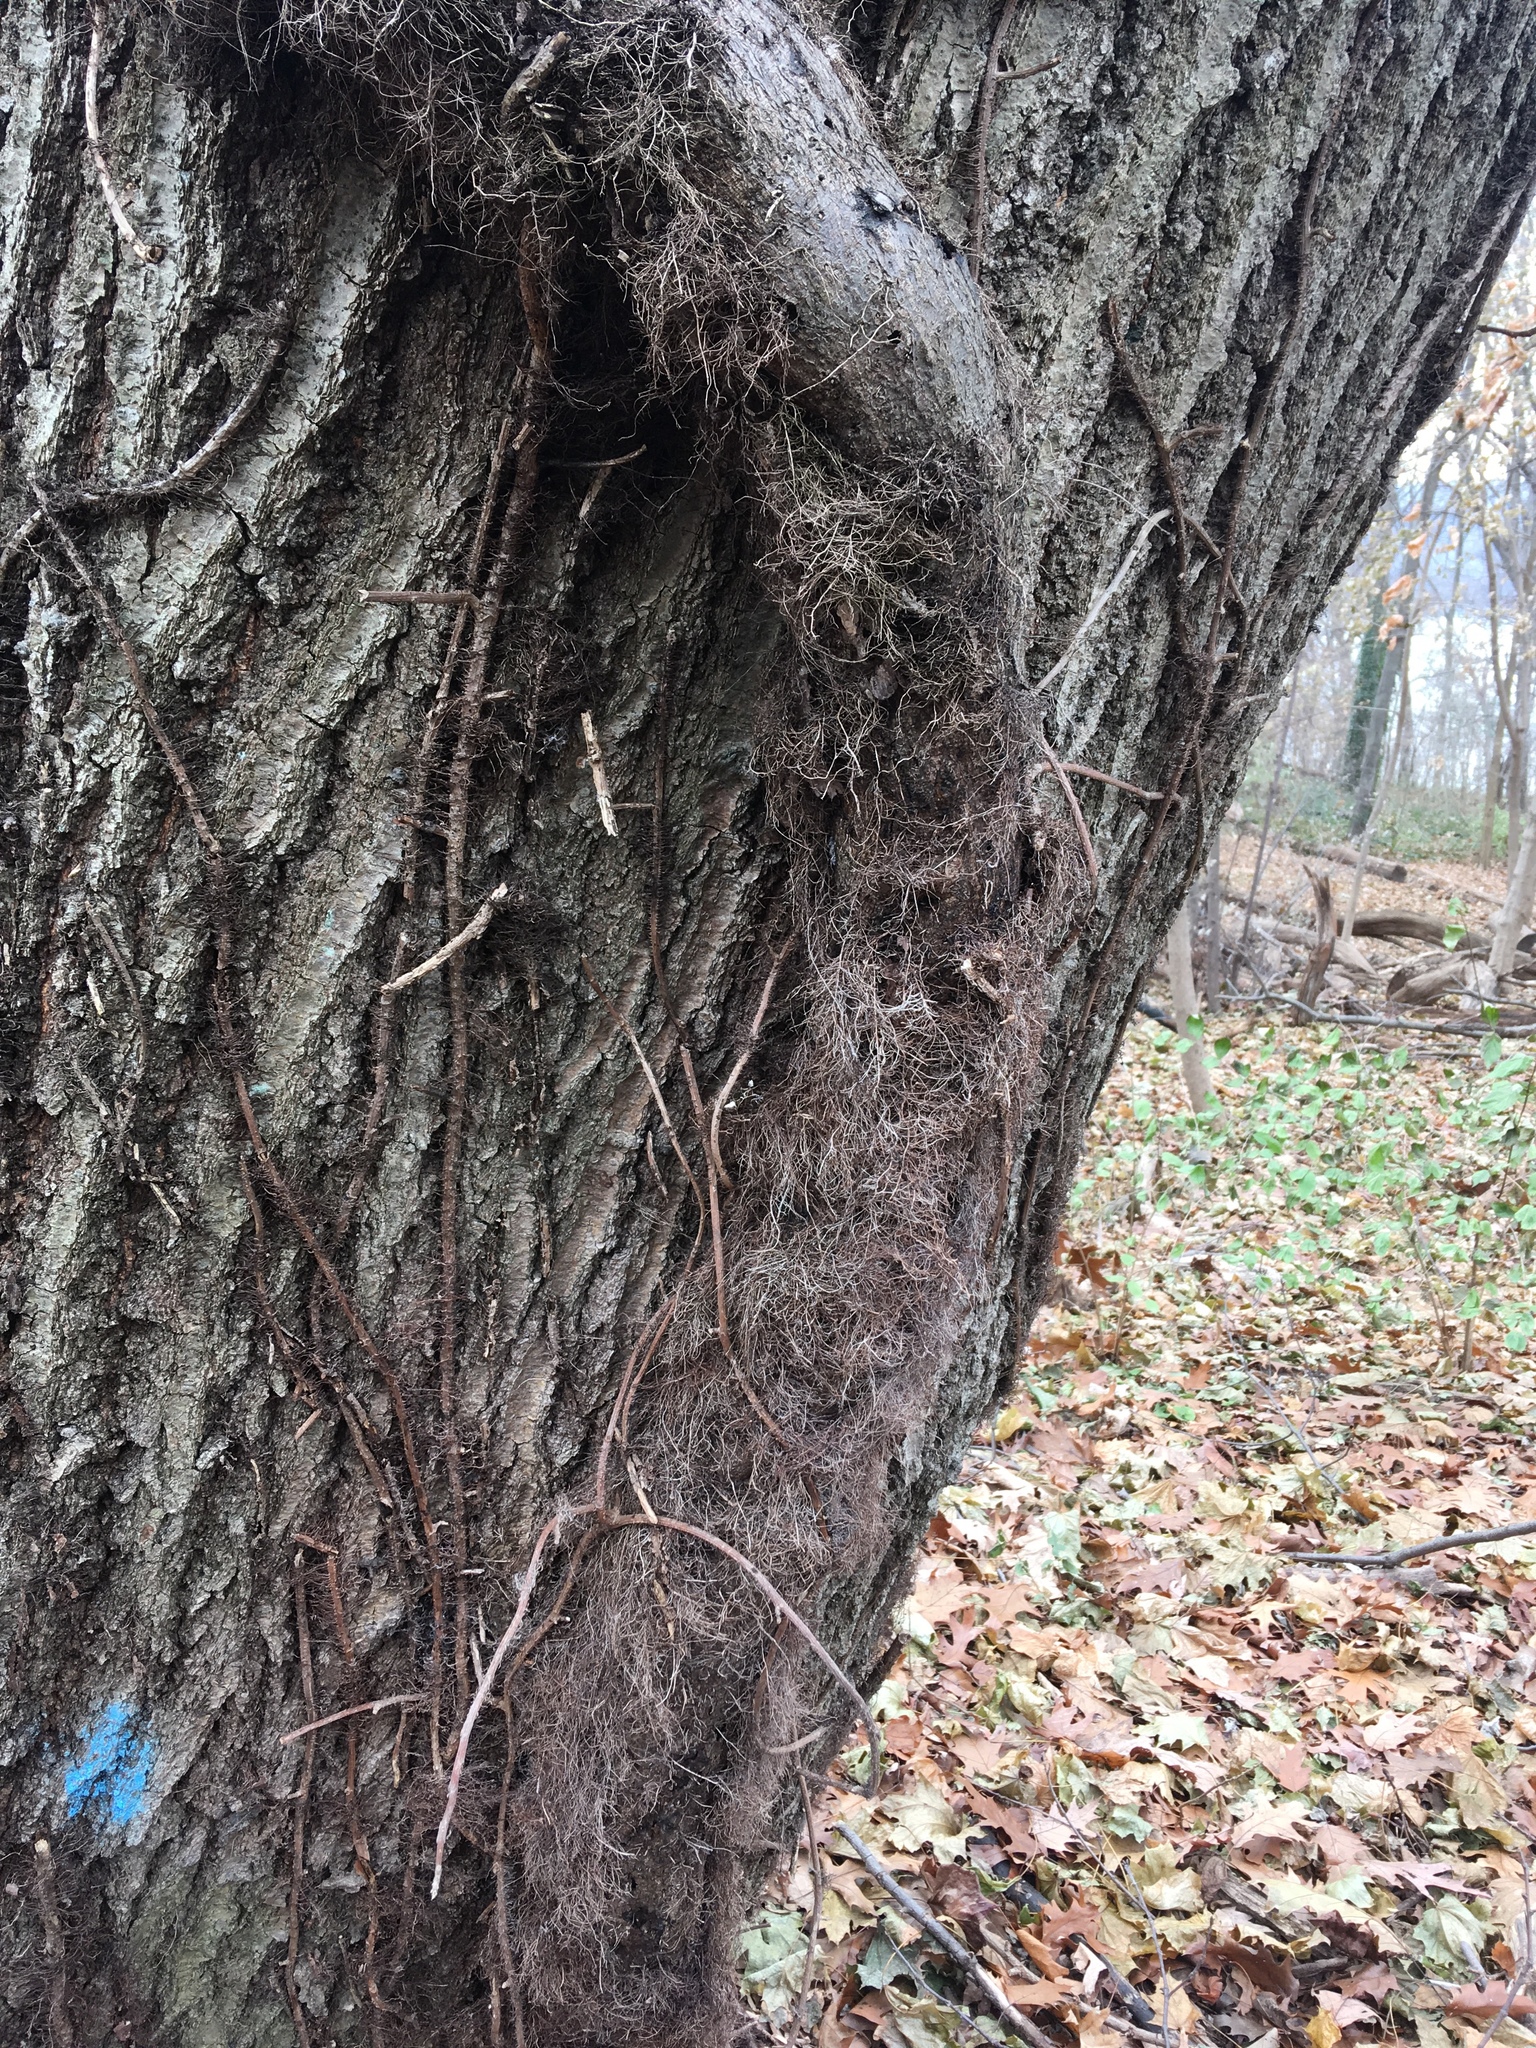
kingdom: Plantae
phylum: Tracheophyta
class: Magnoliopsida
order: Sapindales
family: Anacardiaceae
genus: Toxicodendron
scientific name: Toxicodendron radicans
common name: Poison ivy
